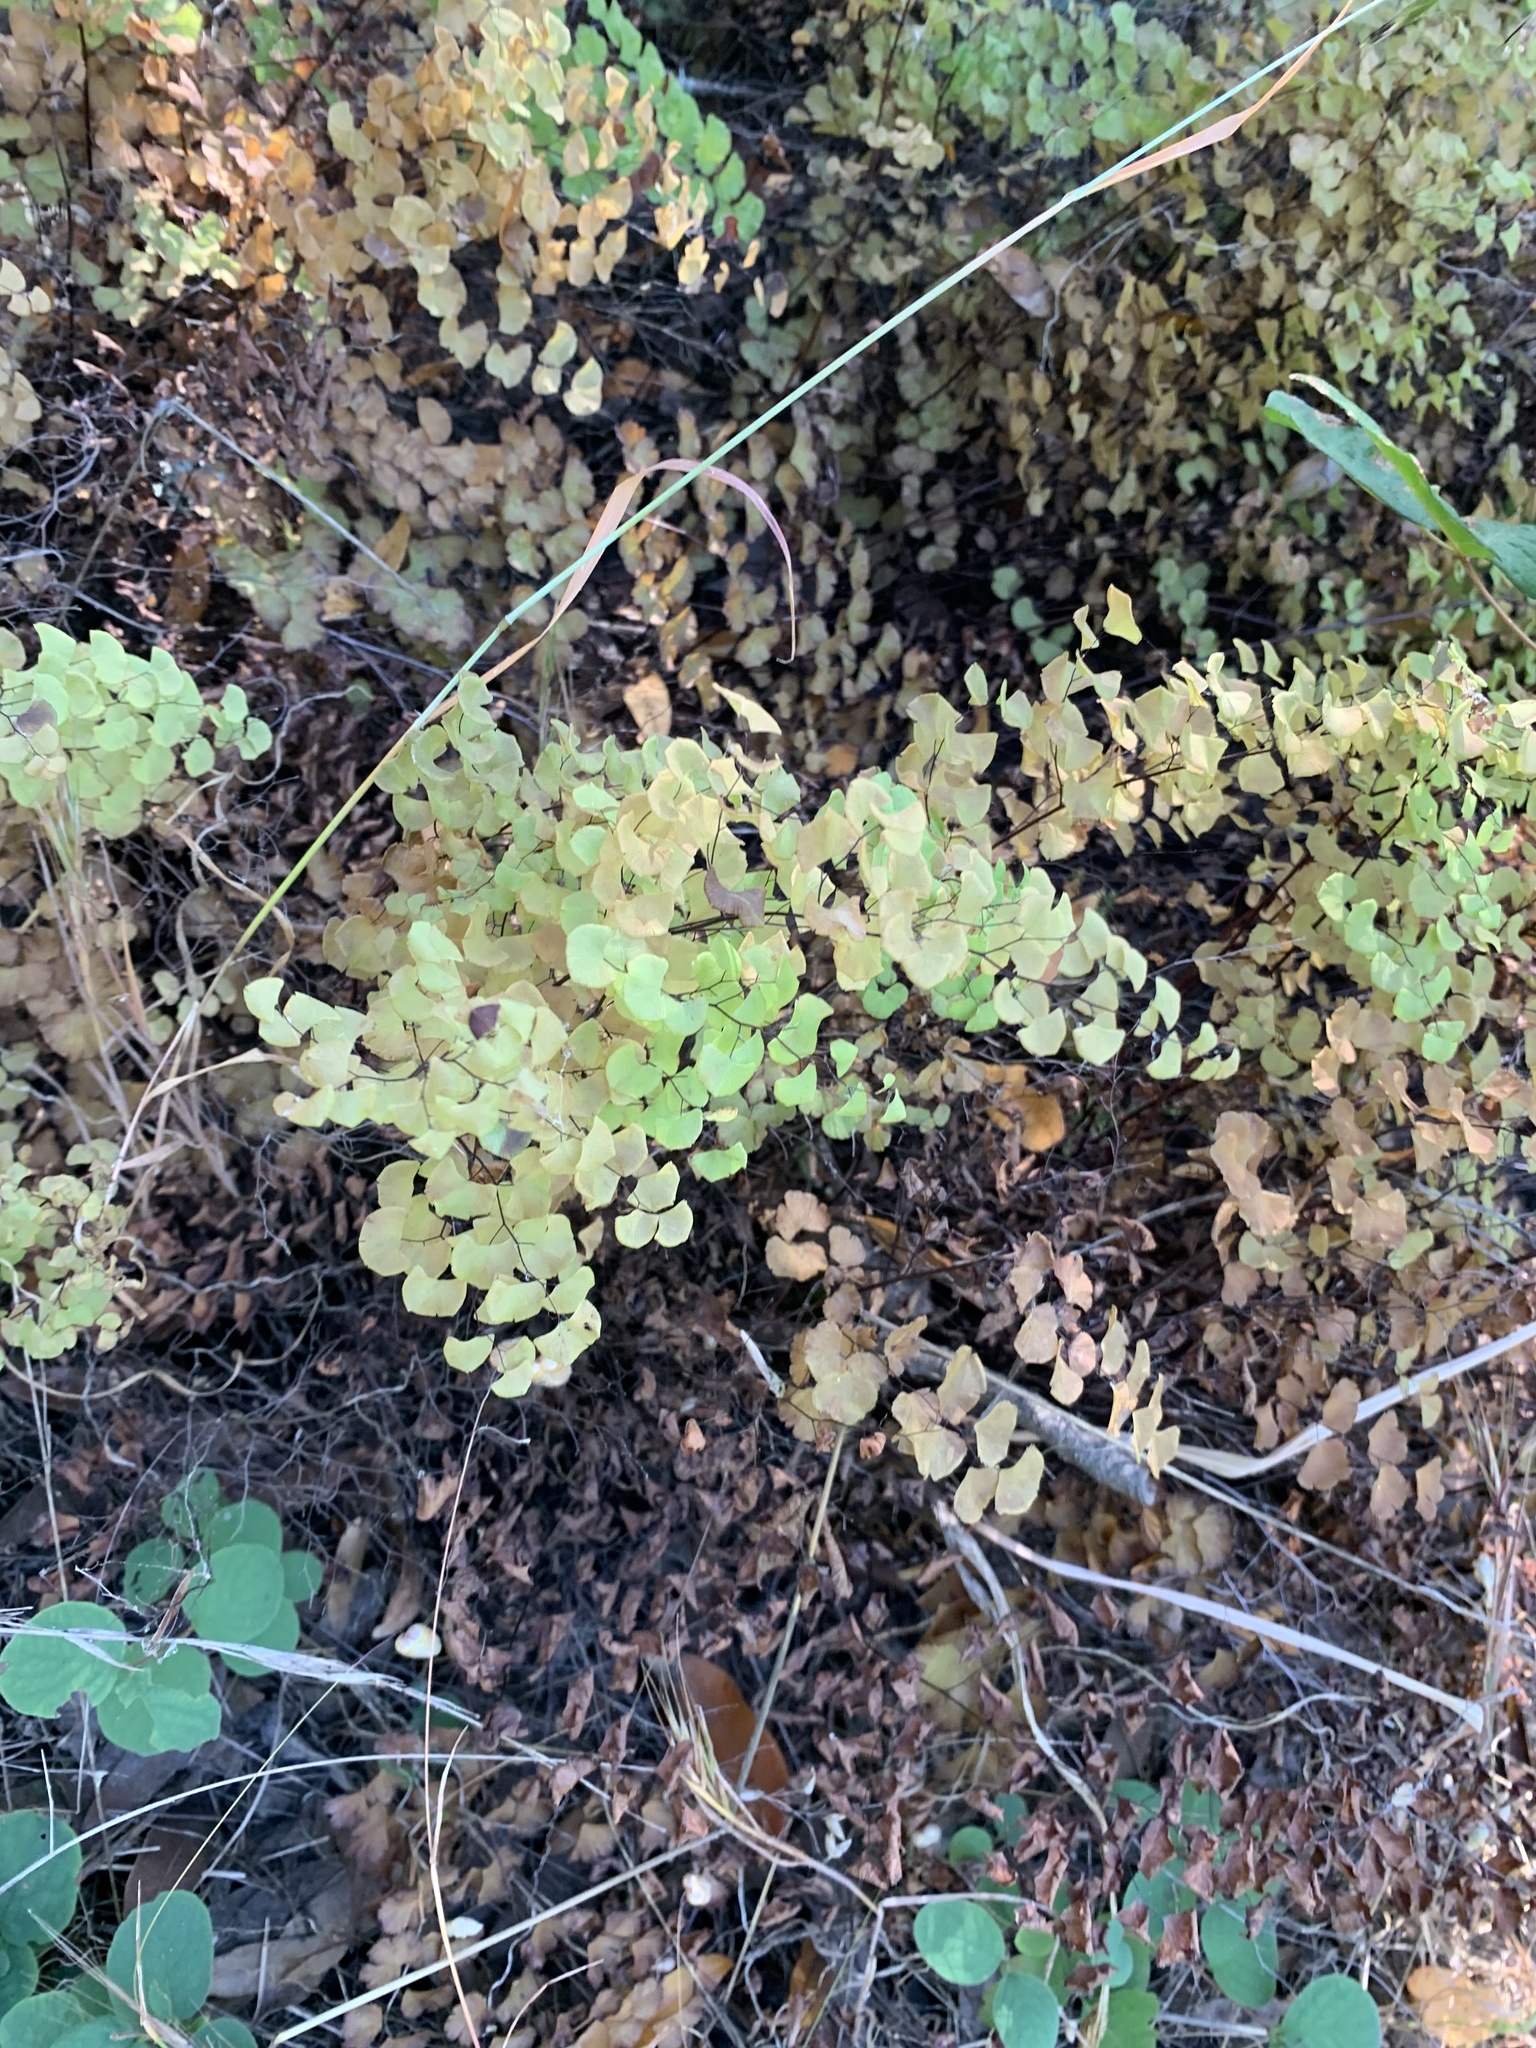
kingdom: Plantae
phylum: Tracheophyta
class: Polypodiopsida
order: Polypodiales
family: Pteridaceae
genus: Adiantum
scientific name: Adiantum jordanii
